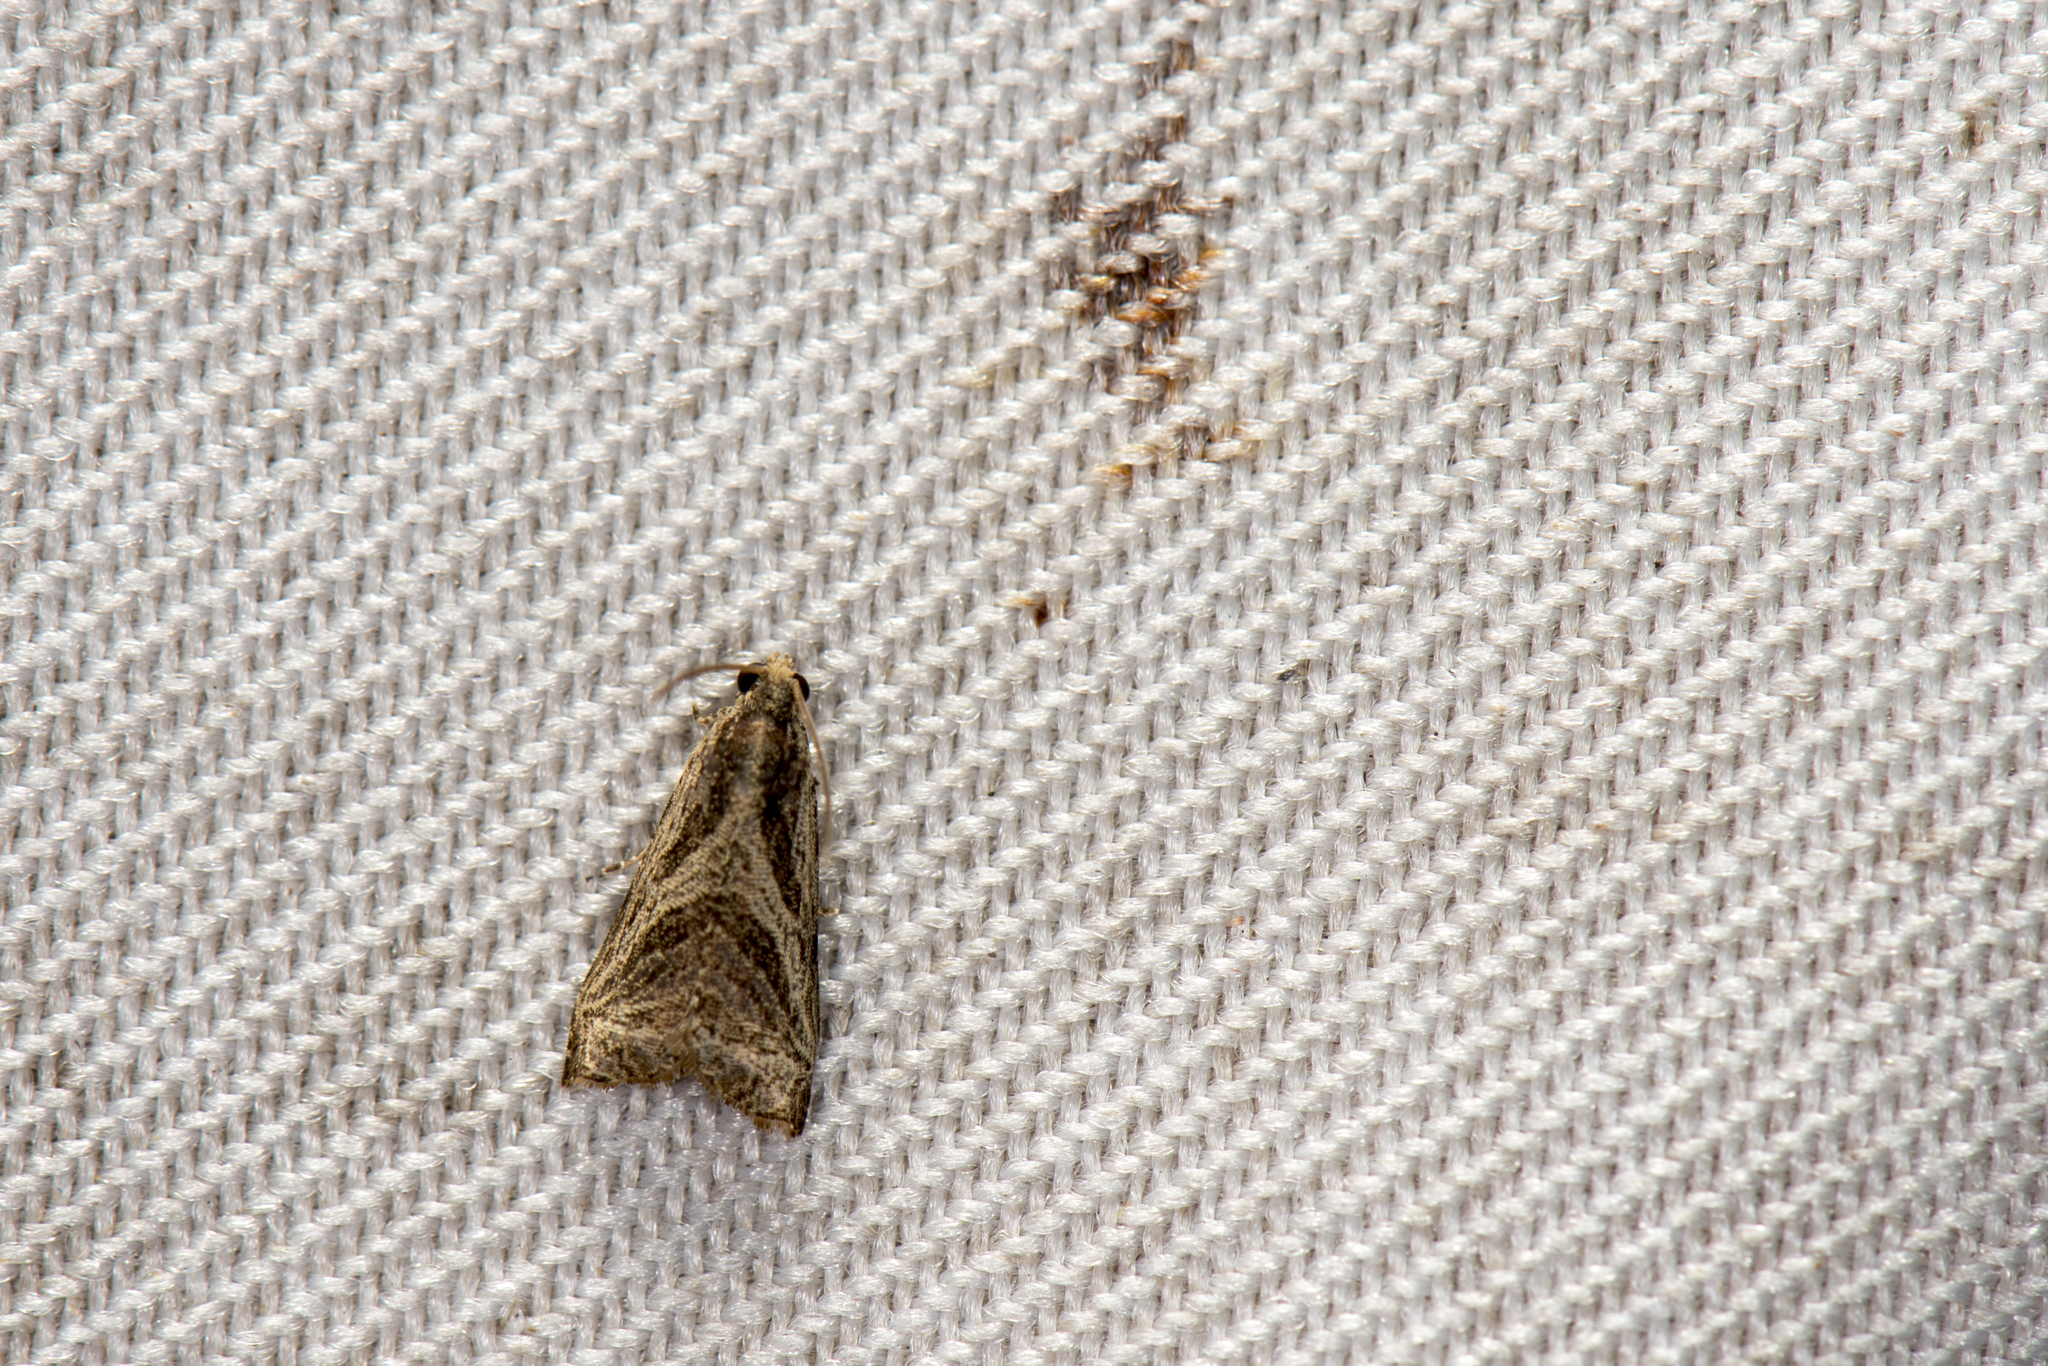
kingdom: Animalia
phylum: Arthropoda
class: Insecta
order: Lepidoptera
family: Tortricidae
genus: Dactylioglypha
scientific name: Dactylioglypha tonica
